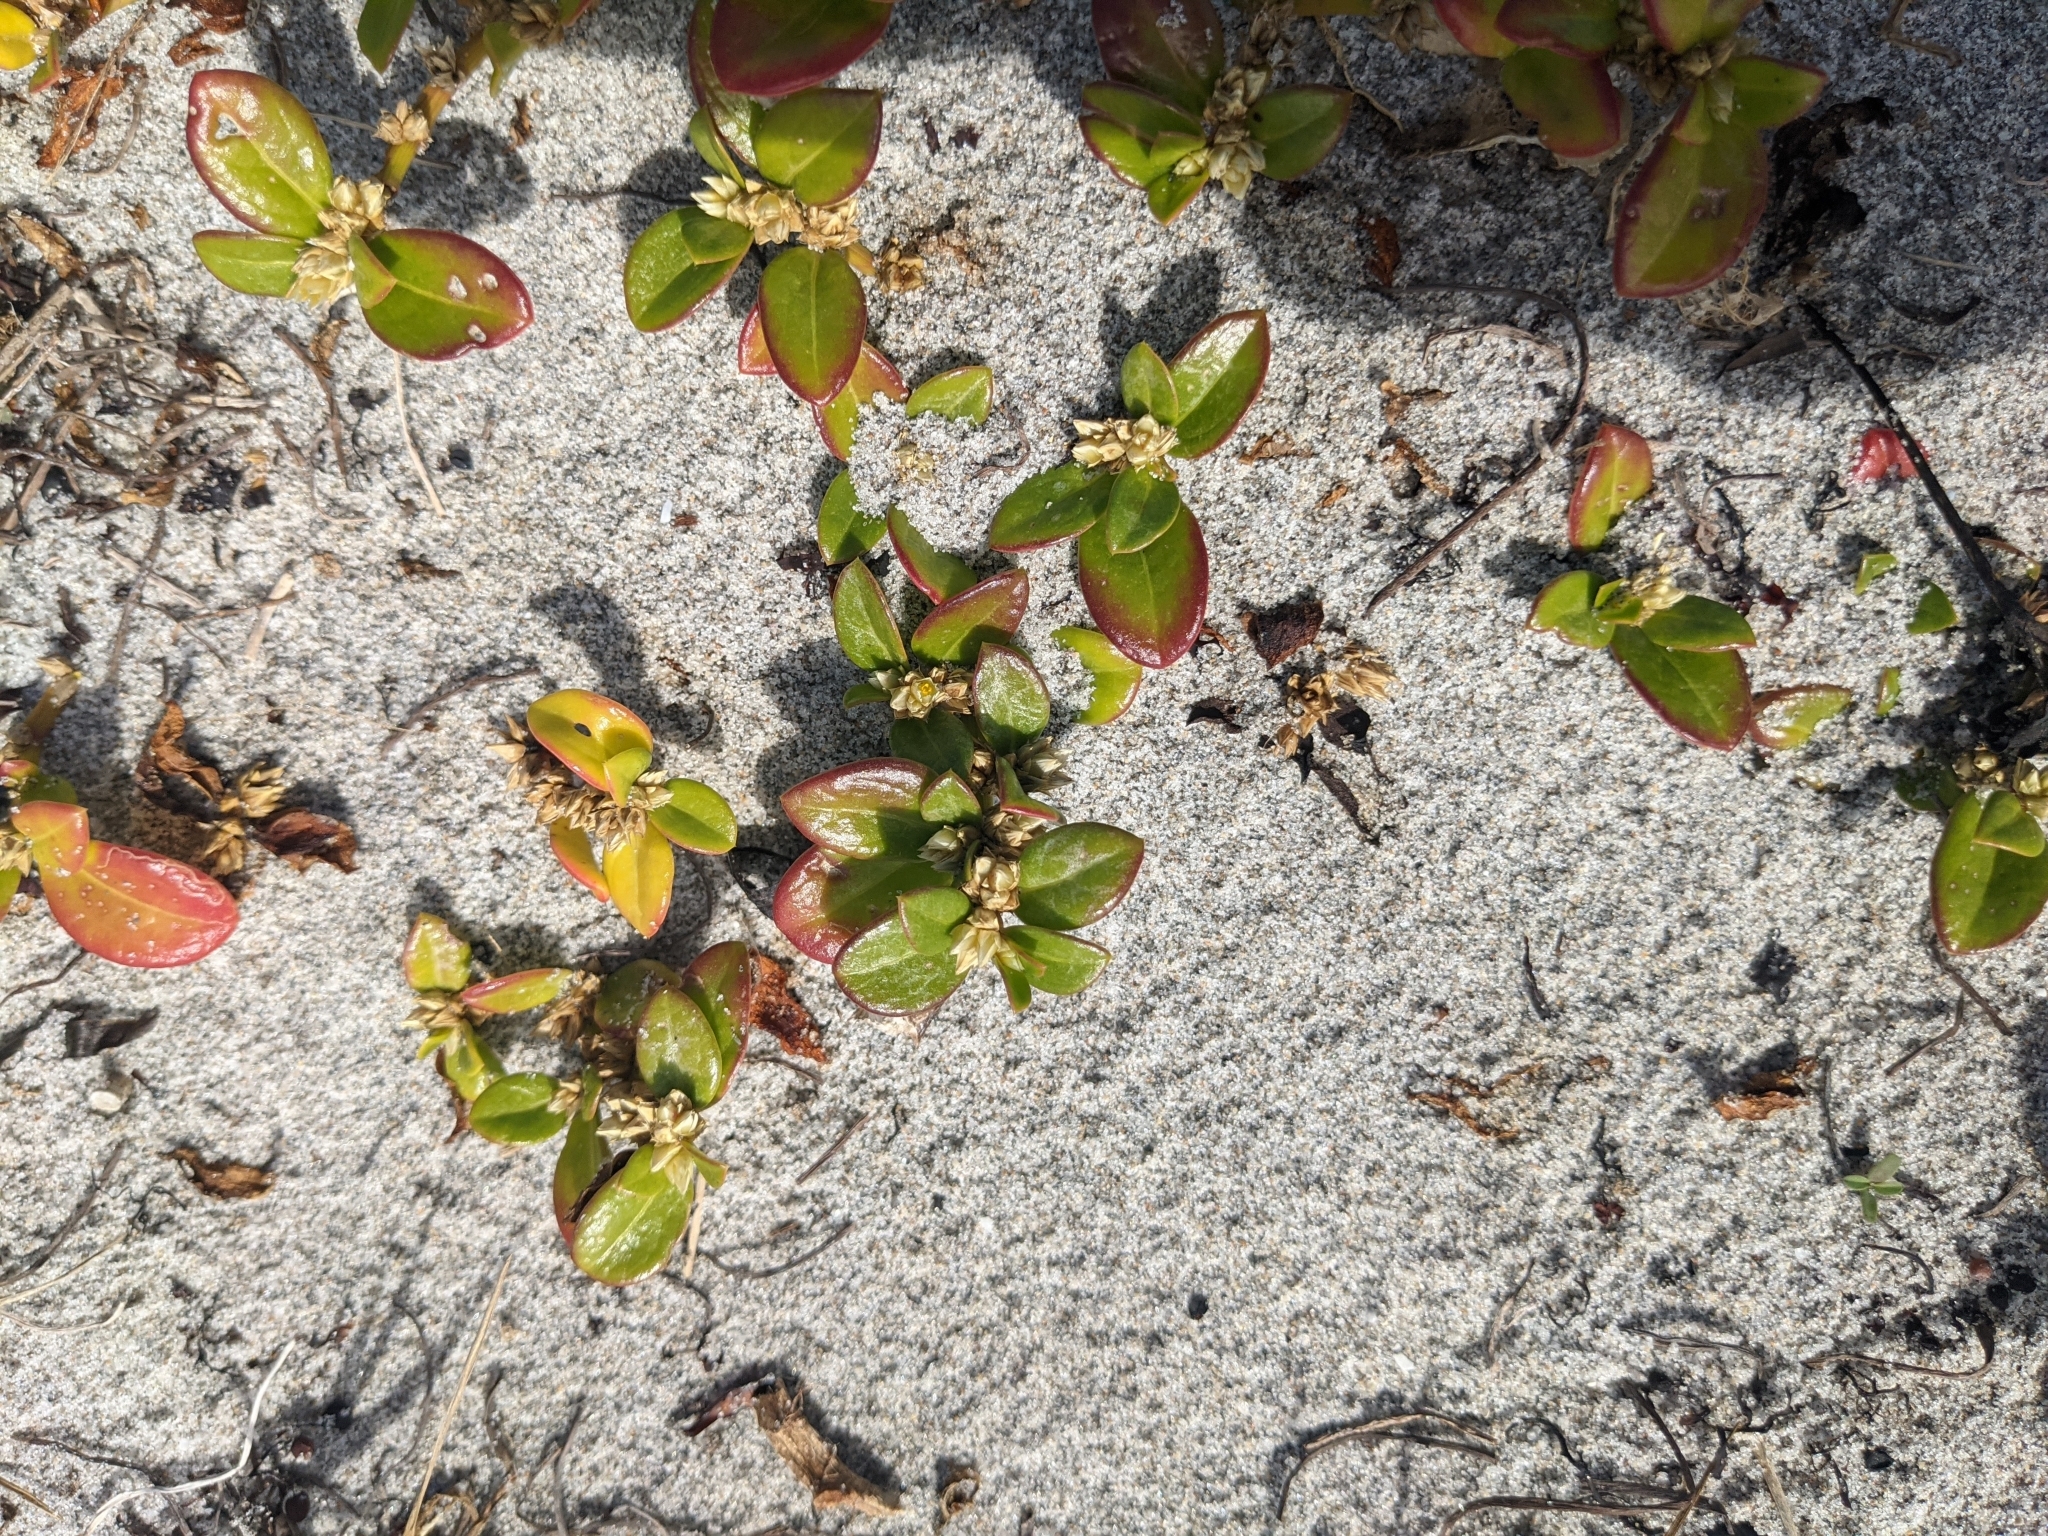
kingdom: Plantae
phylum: Tracheophyta
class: Magnoliopsida
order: Caryophyllales
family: Amaranthaceae
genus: Alternanthera
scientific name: Alternanthera littoralis
